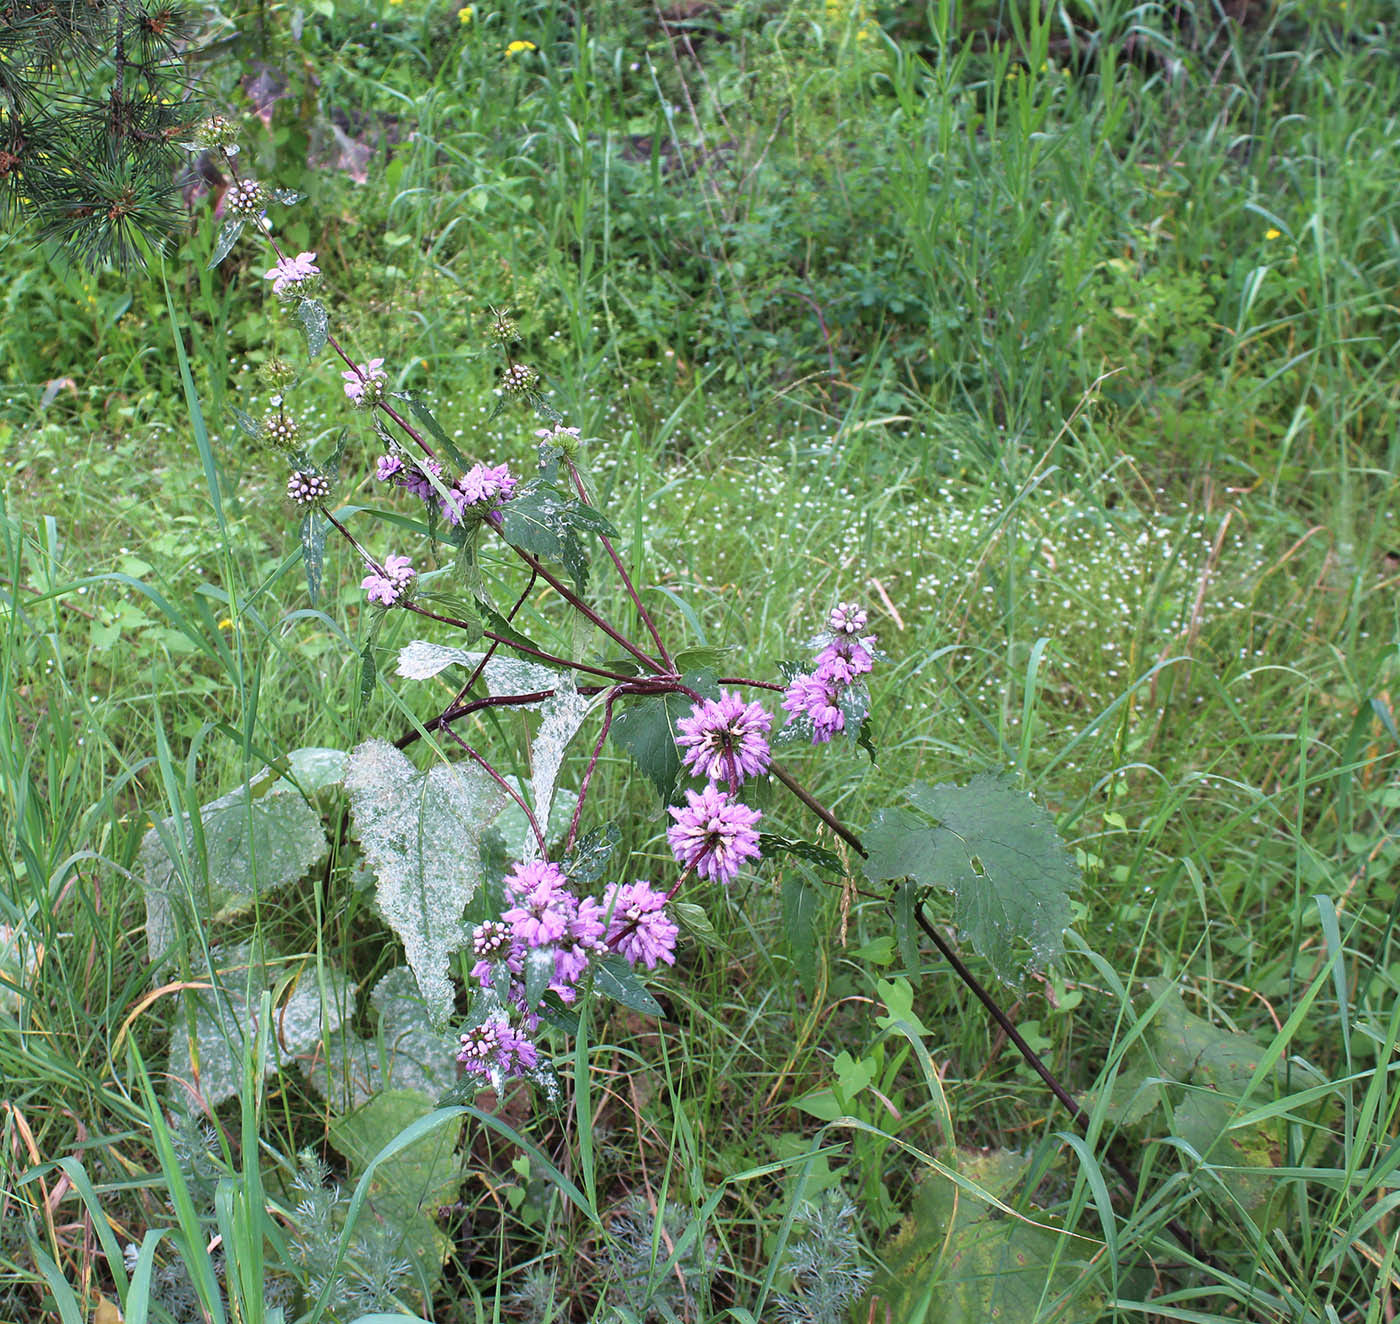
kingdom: Plantae
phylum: Tracheophyta
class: Magnoliopsida
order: Lamiales
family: Lamiaceae
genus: Phlomoides
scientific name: Phlomoides tuberosa
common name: Tuberous jerusalem sage
